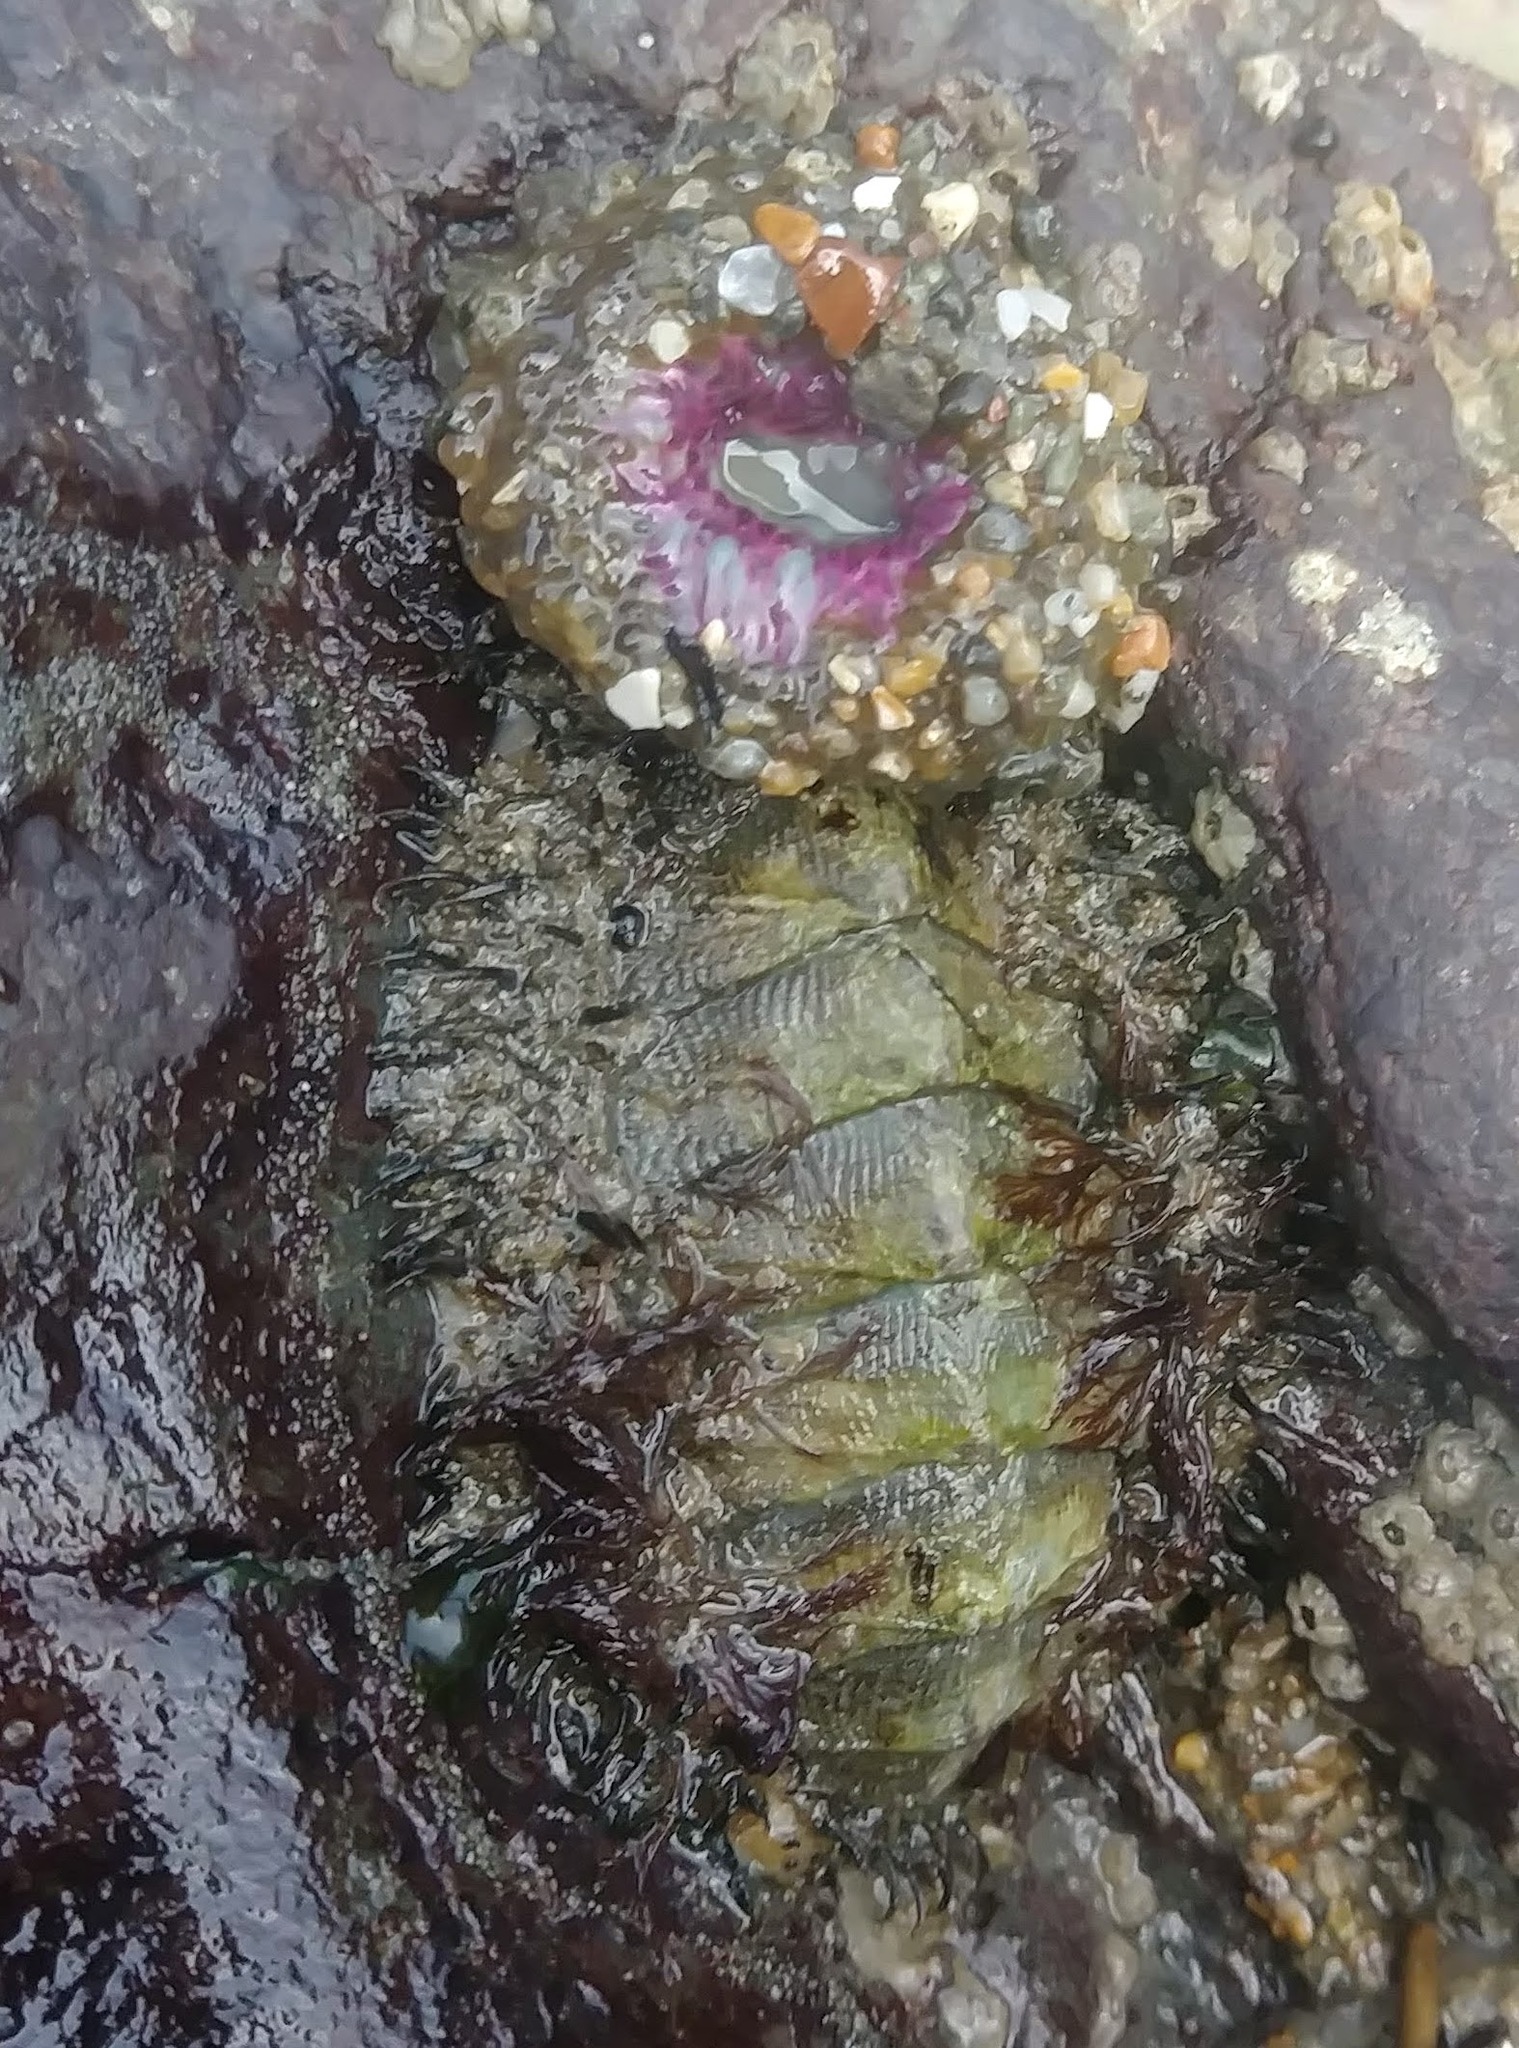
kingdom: Animalia
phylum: Cnidaria
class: Anthozoa
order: Actiniaria
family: Actiniidae
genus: Anthopleura
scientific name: Anthopleura elegantissima
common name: Clonal anemone
